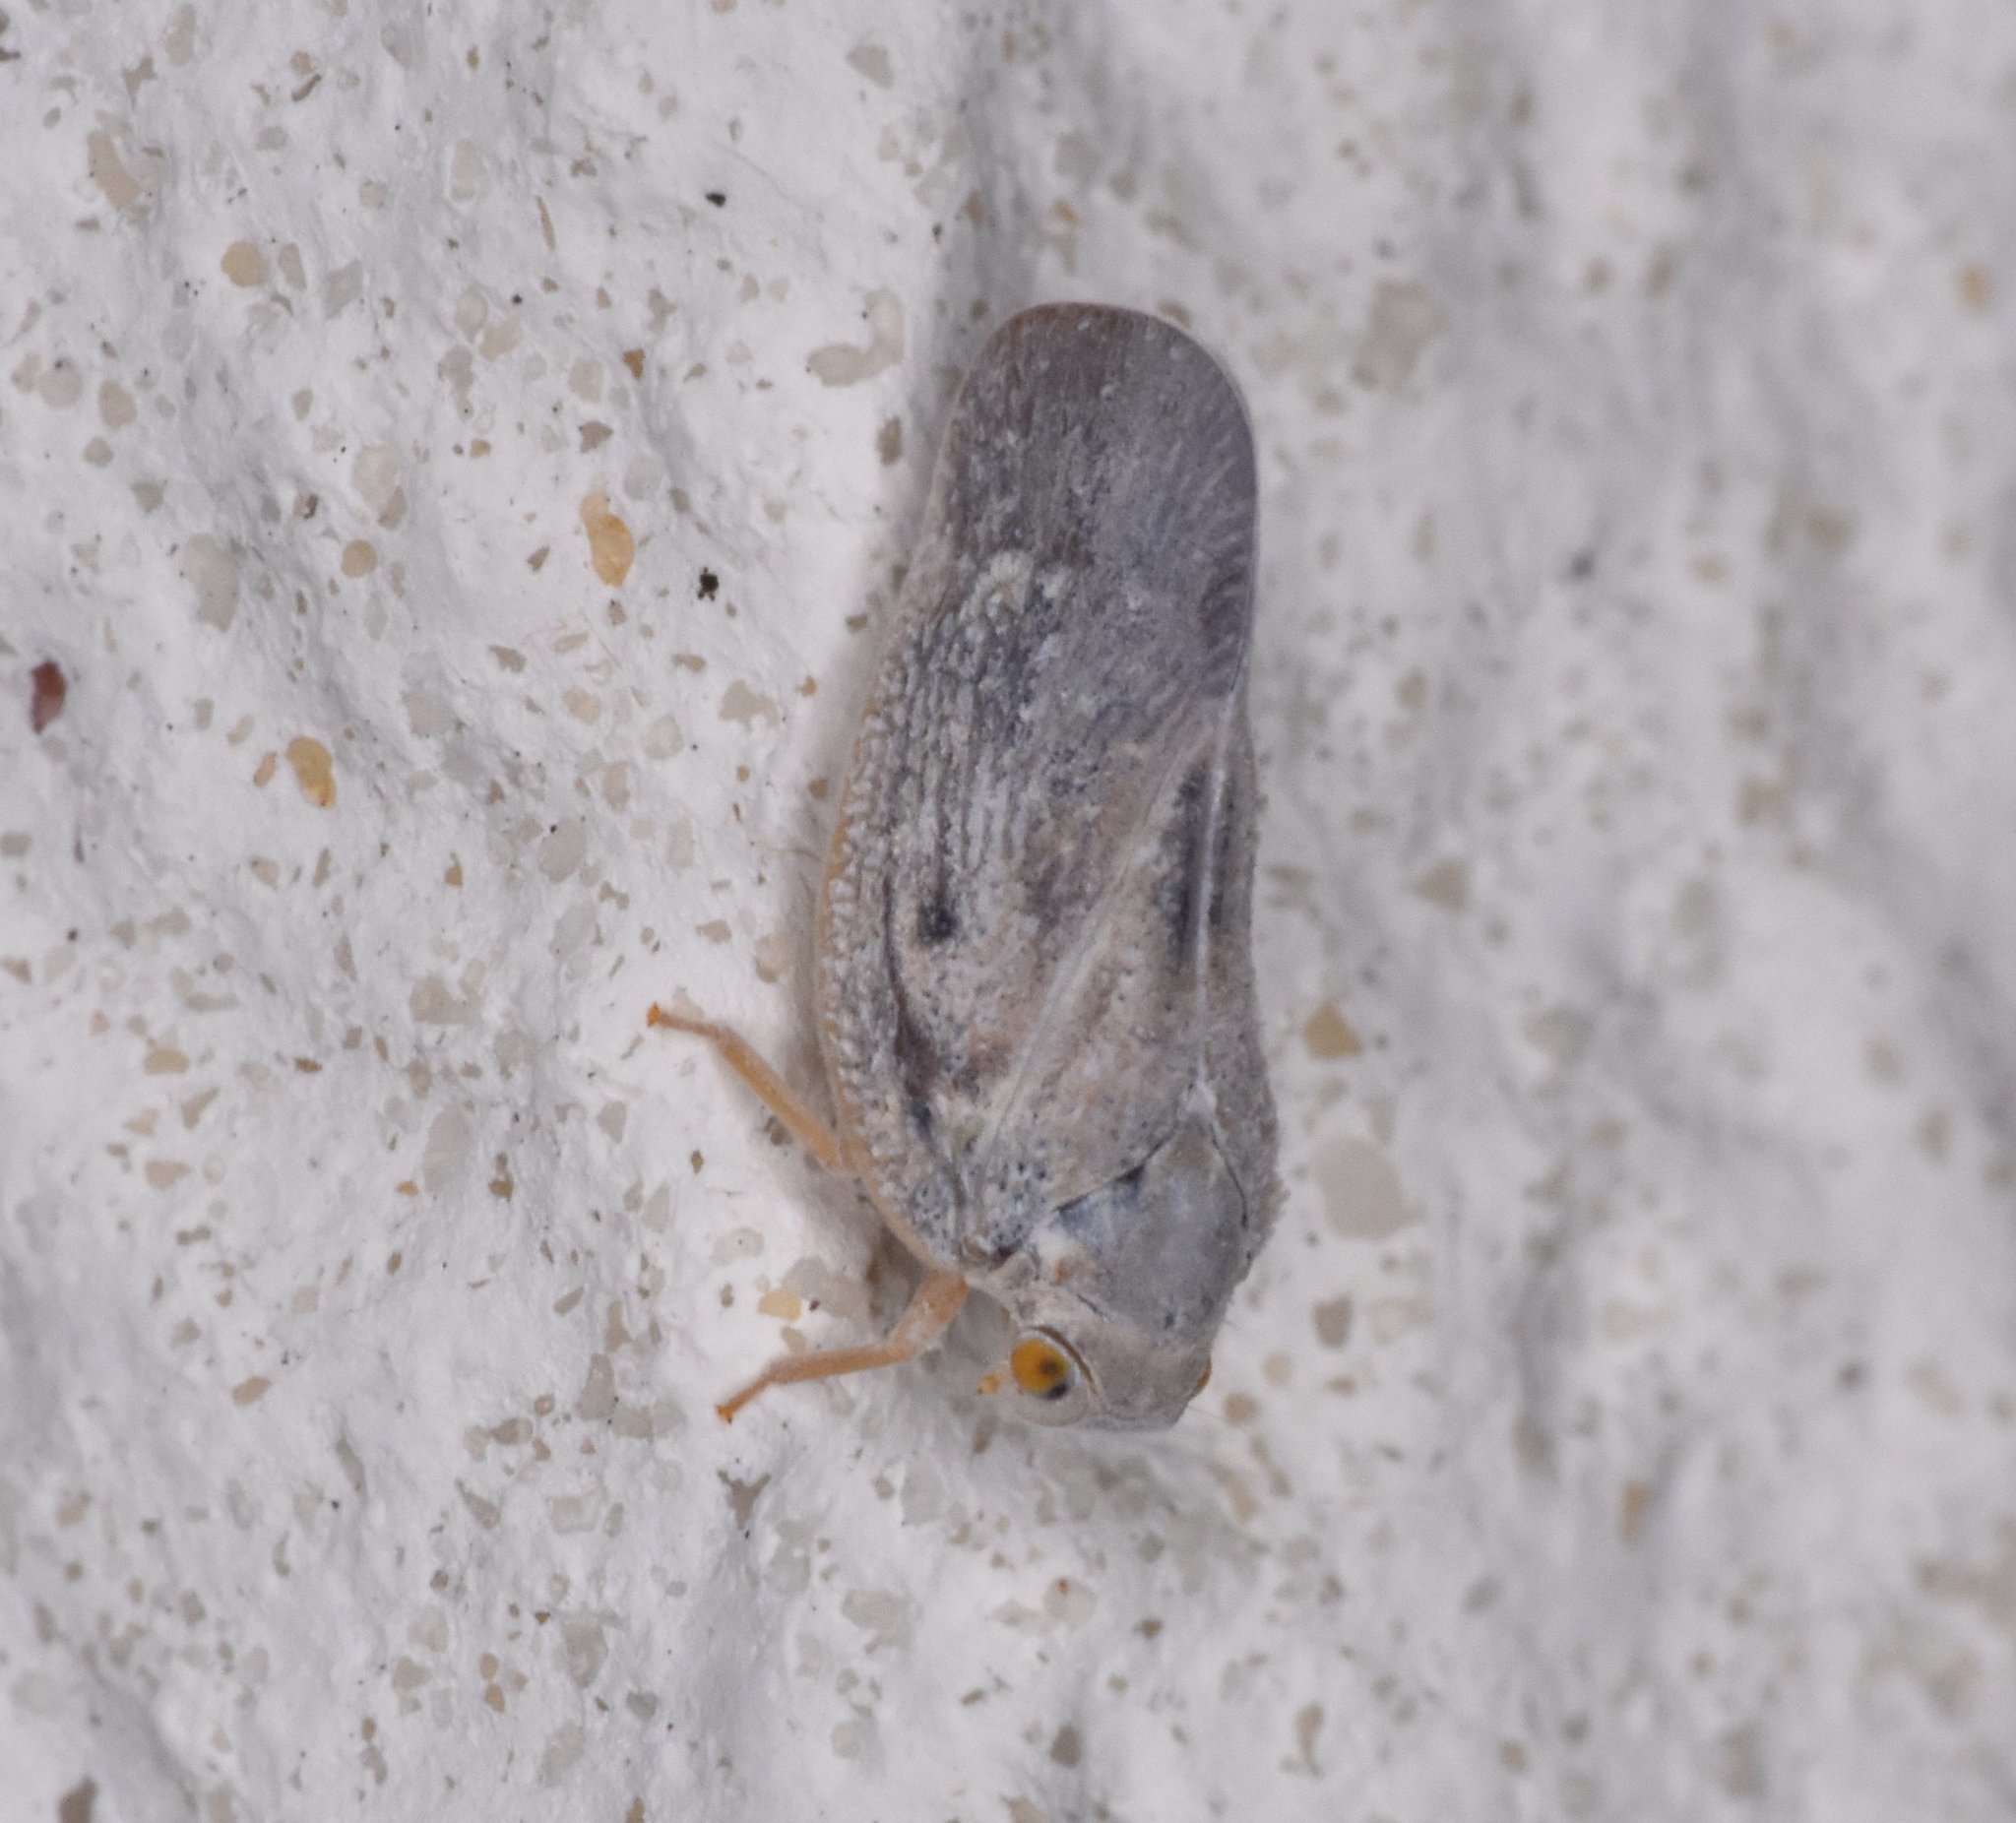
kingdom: Animalia
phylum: Arthropoda
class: Insecta
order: Hemiptera
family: Flatidae
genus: Metcalfa
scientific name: Metcalfa pruinosa
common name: Citrus flatid planthopper
